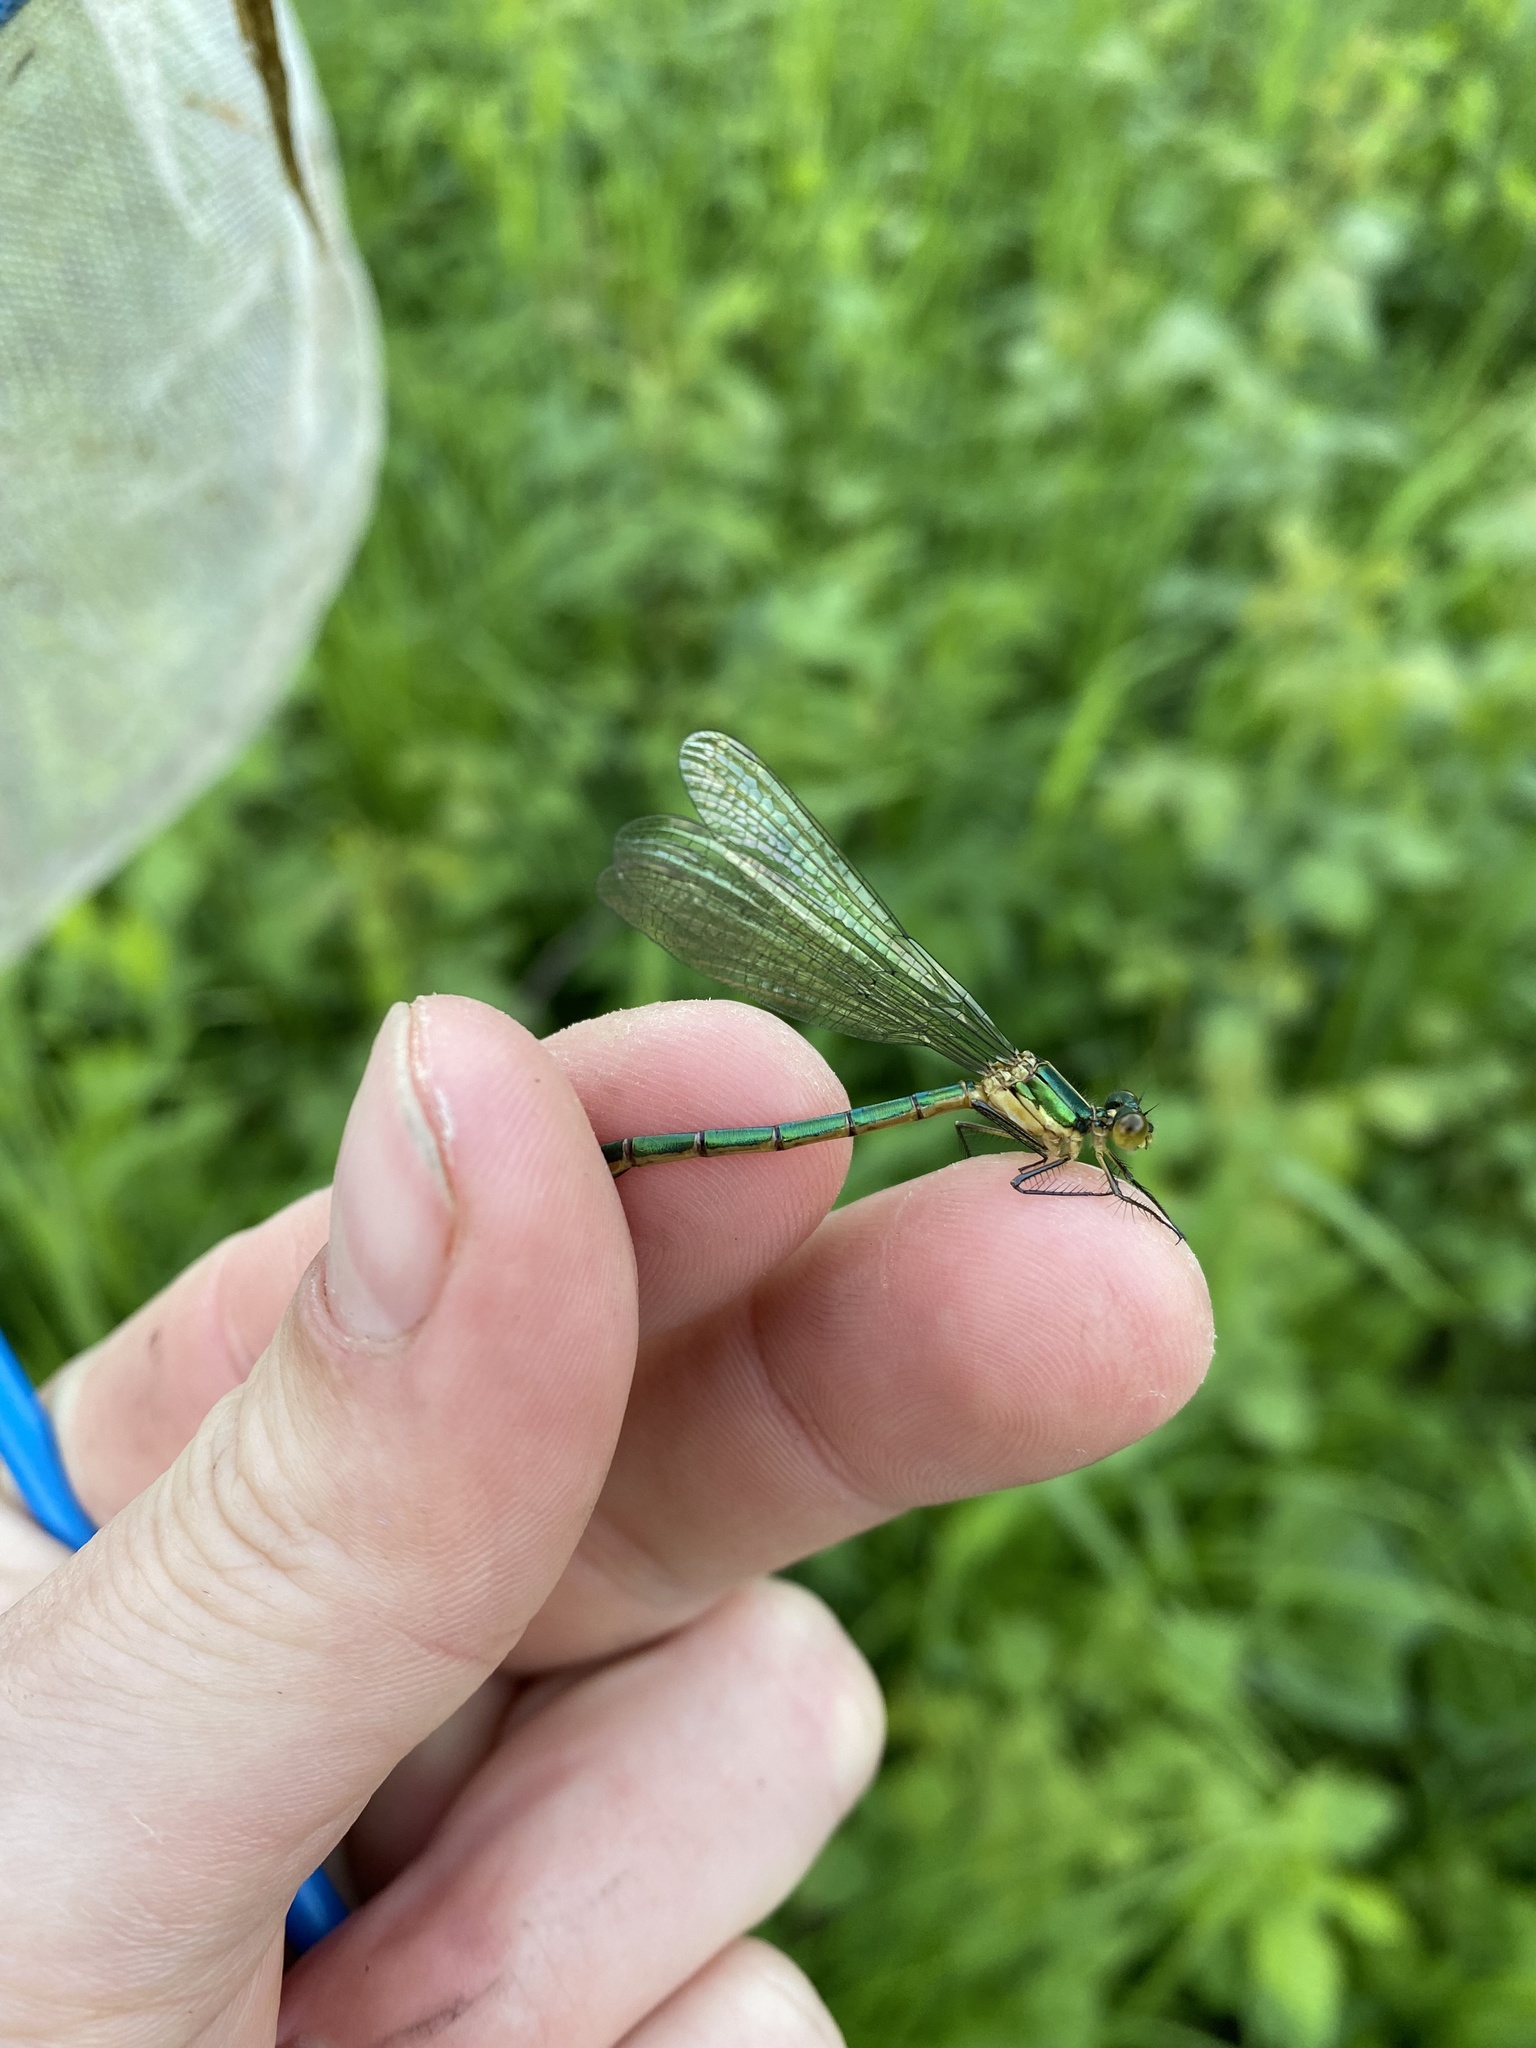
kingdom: Animalia
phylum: Arthropoda
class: Insecta
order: Odonata
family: Lestidae
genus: Lestes
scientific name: Lestes dryas
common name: Scarce emerald damselfly
